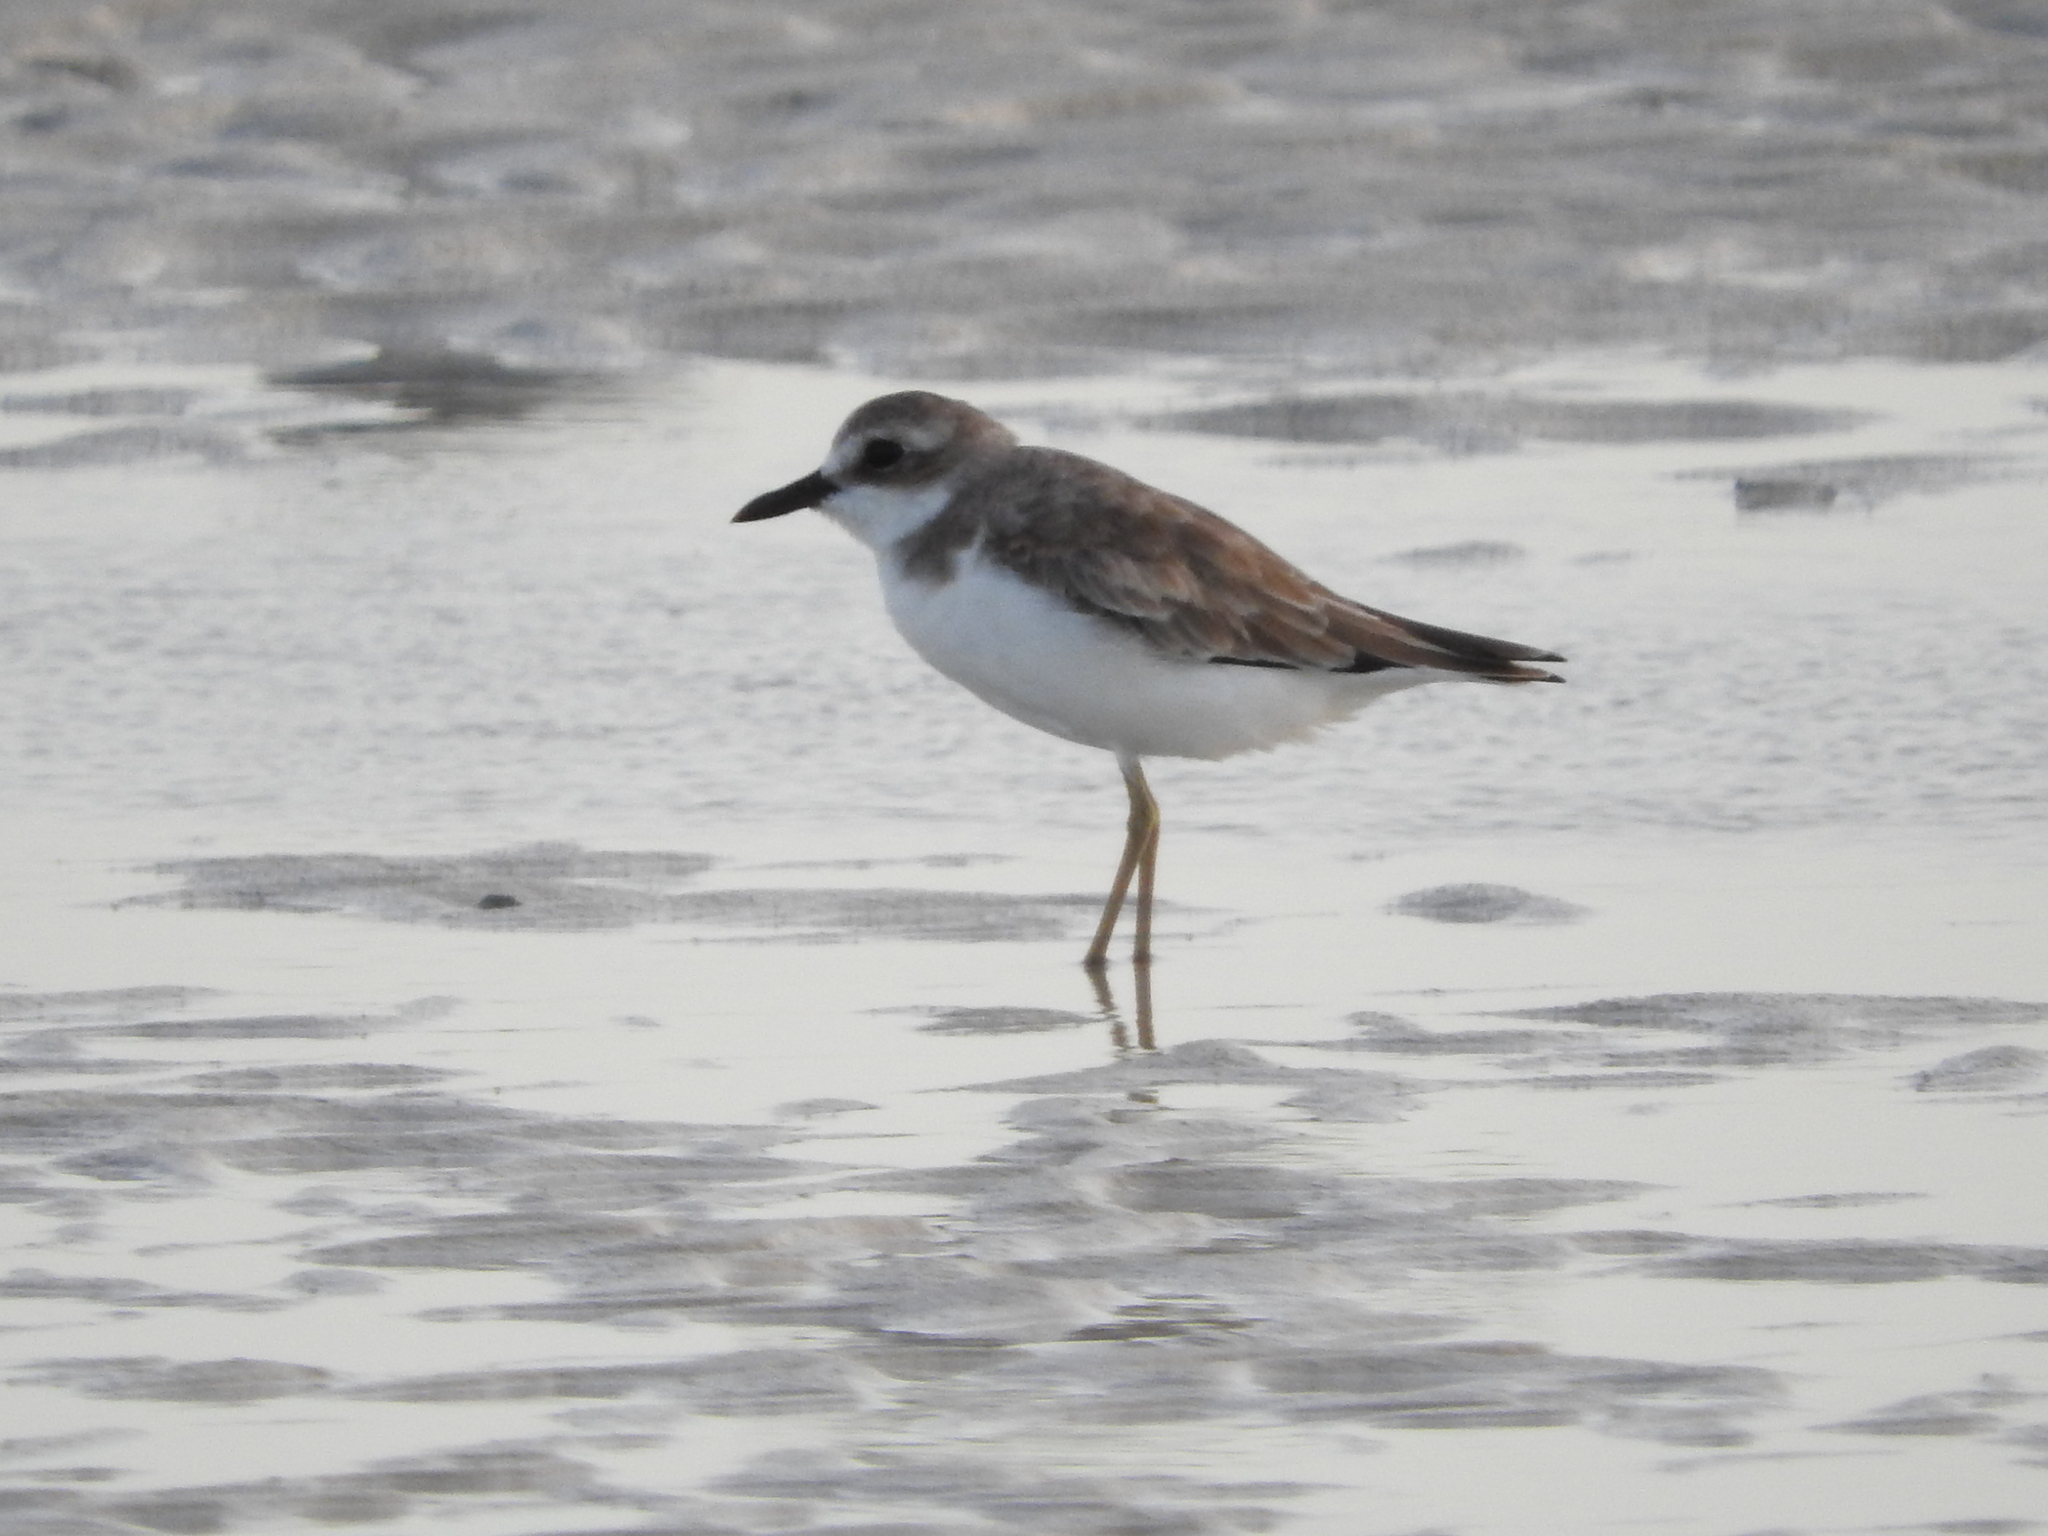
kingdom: Animalia
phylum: Chordata
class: Aves
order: Charadriiformes
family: Charadriidae
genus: Charadrius
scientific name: Charadrius leschenaultii
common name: Greater sand plover
